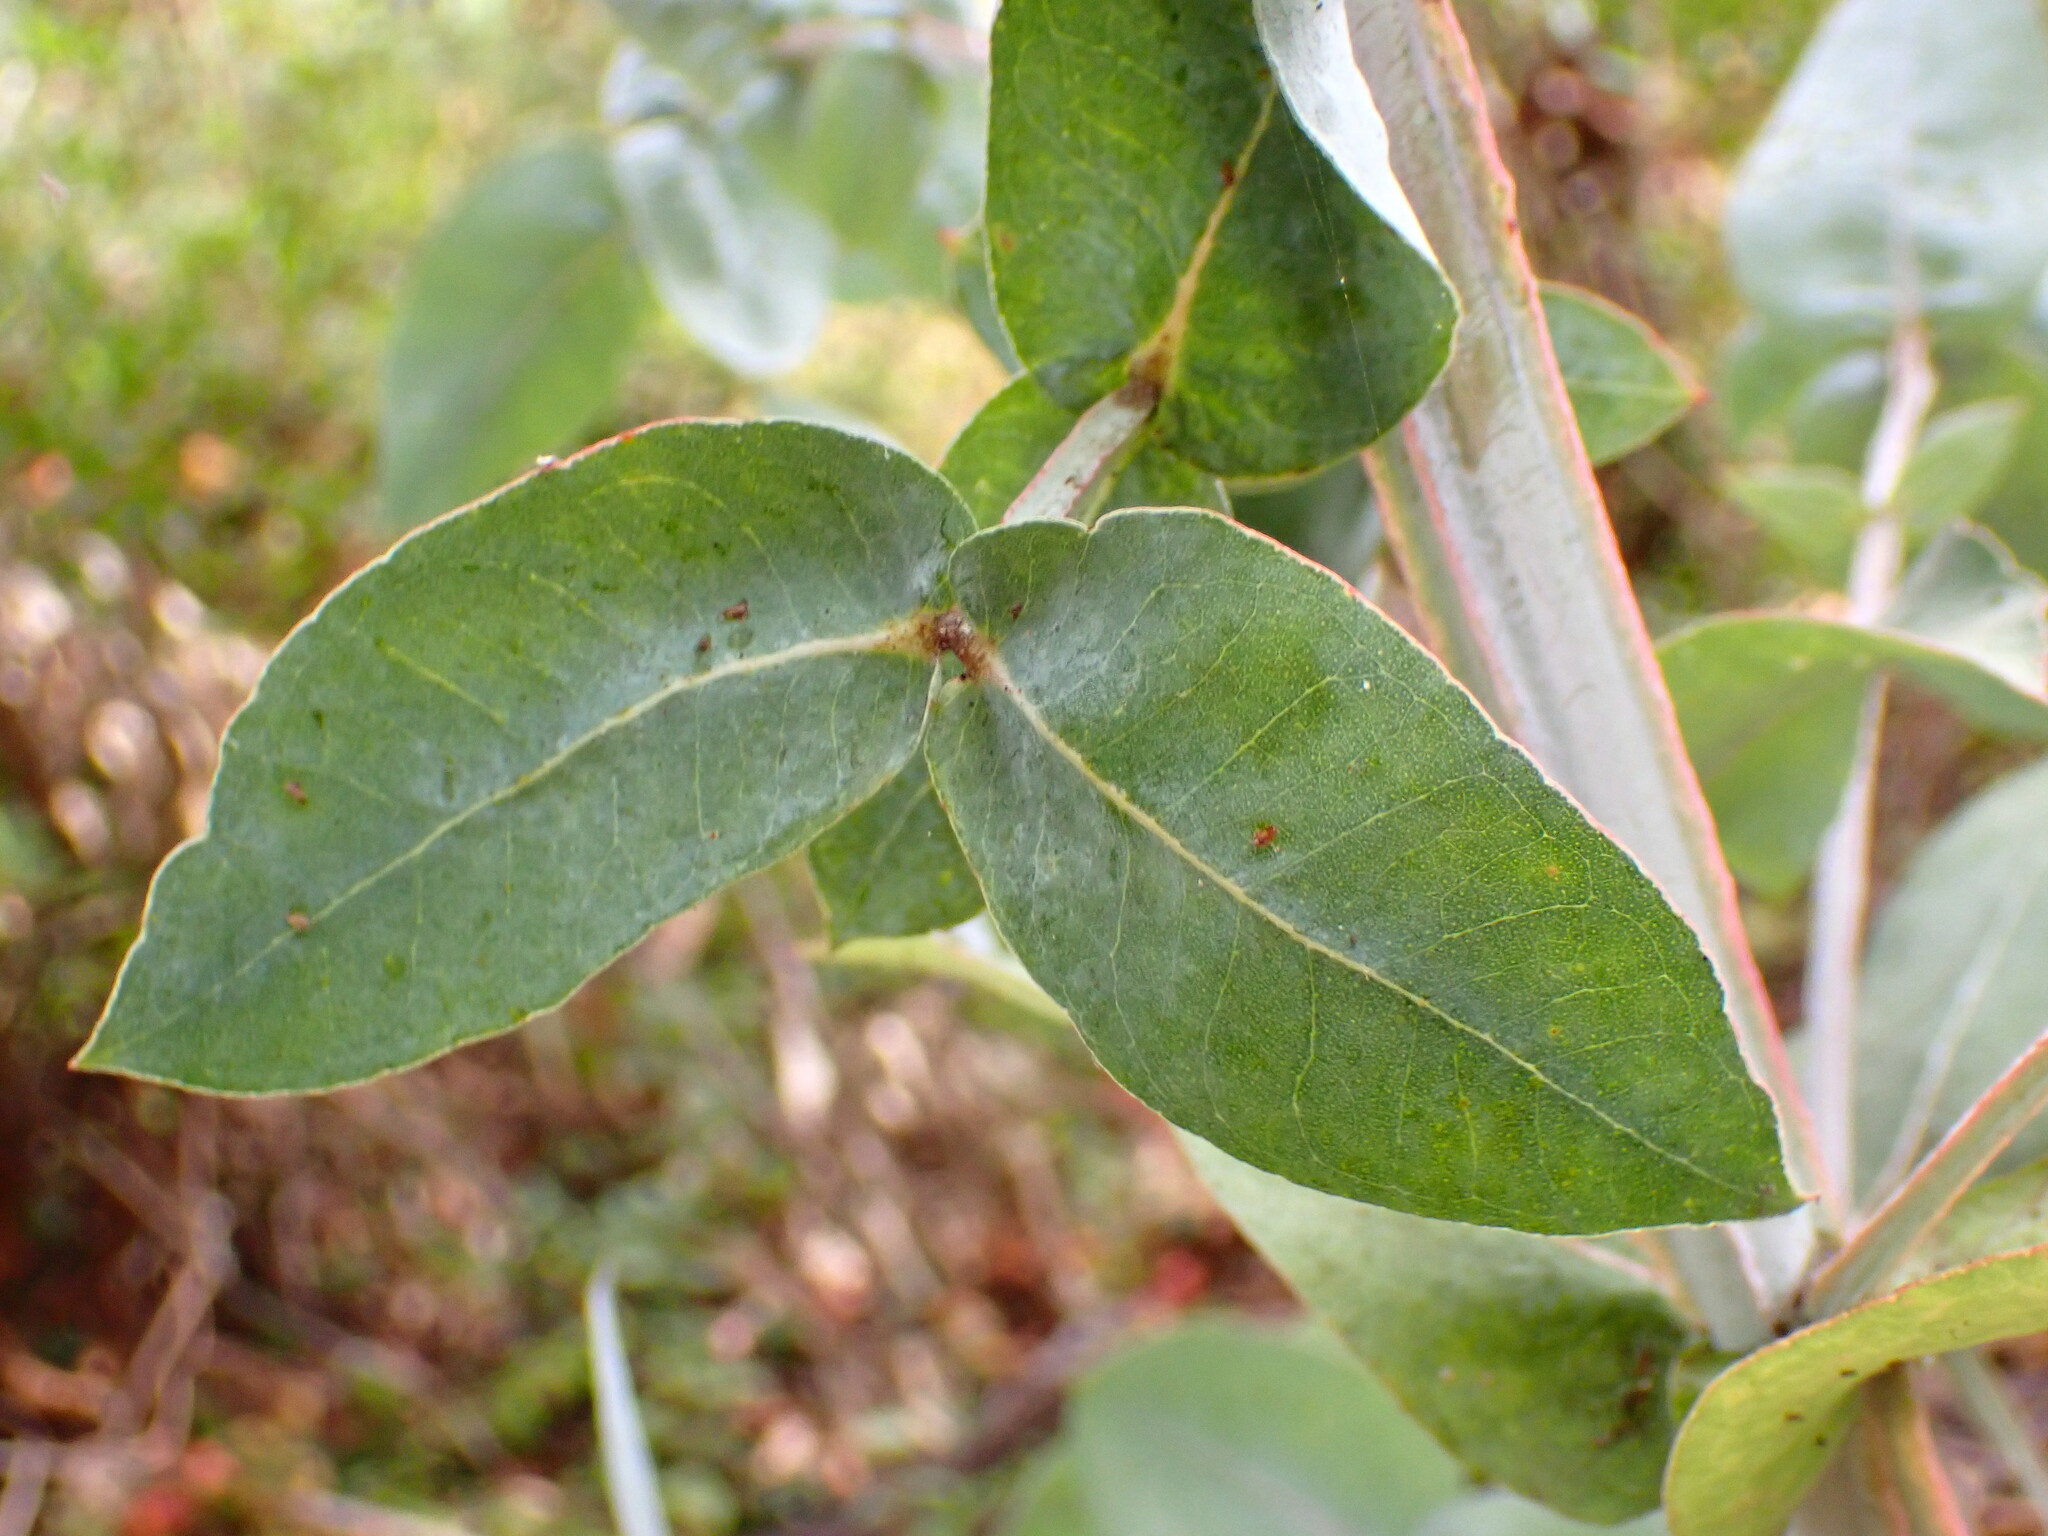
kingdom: Plantae
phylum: Tracheophyta
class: Magnoliopsida
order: Myrtales
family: Myrtaceae
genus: Eucalyptus
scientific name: Eucalyptus globulus
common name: Southern blue-gum
